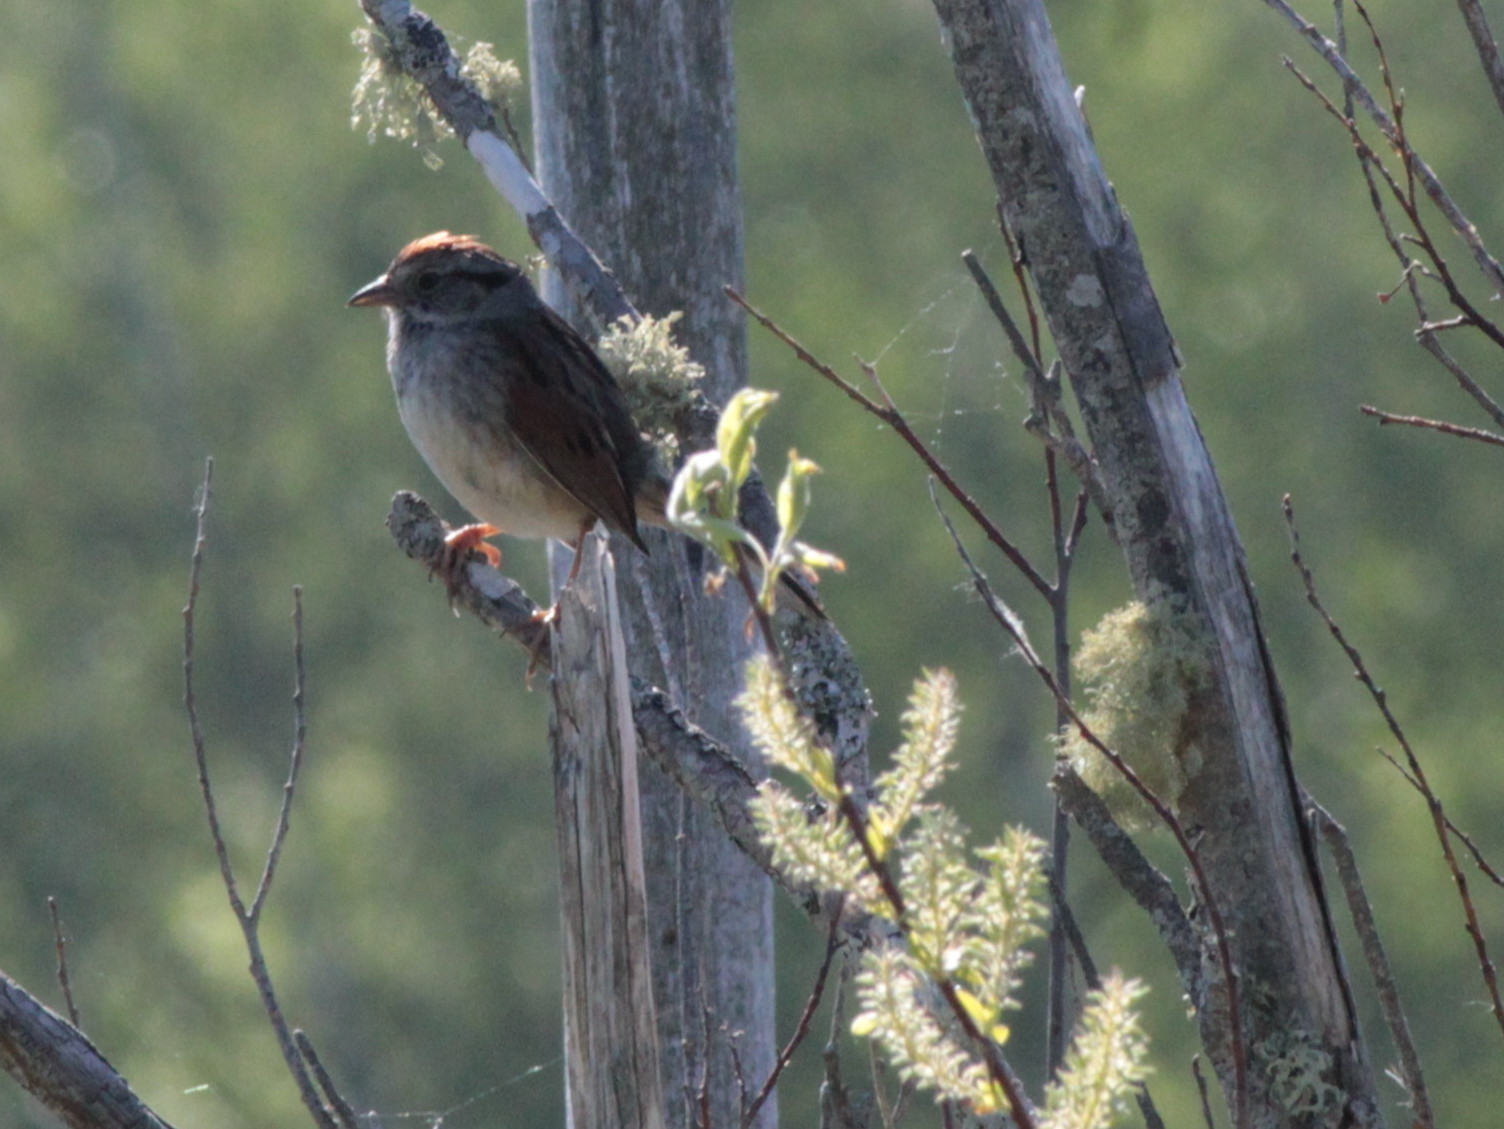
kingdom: Animalia
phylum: Chordata
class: Aves
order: Passeriformes
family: Passerellidae
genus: Melospiza
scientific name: Melospiza georgiana
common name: Swamp sparrow
